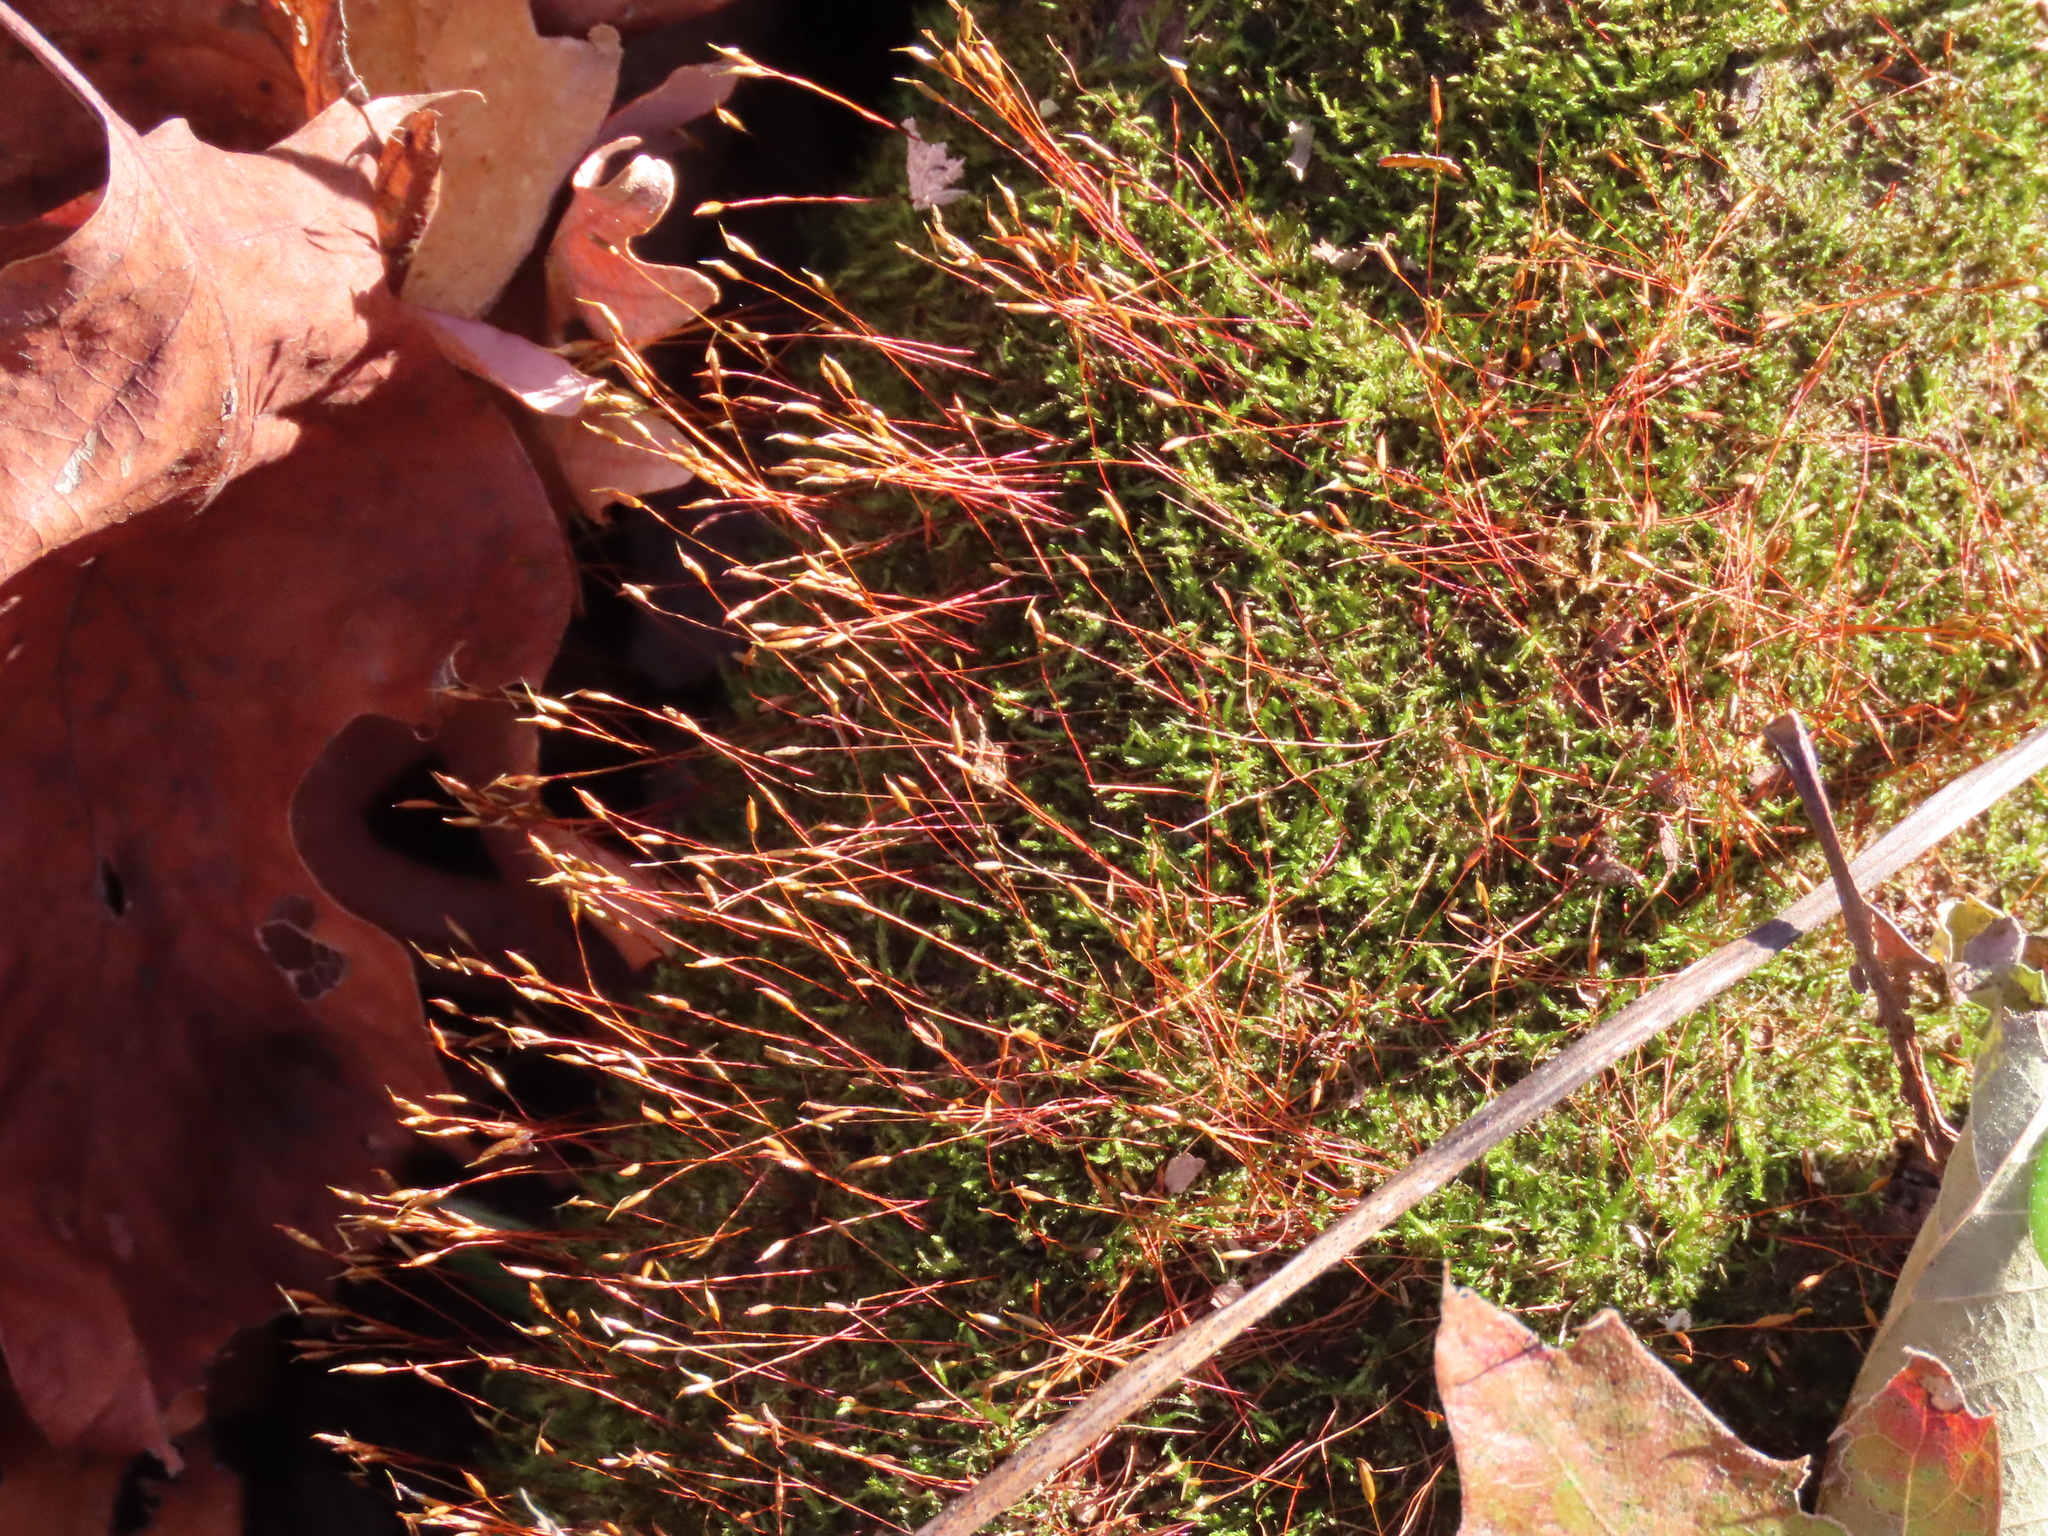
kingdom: Plantae
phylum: Bryophyta
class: Bryopsida
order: Hypnales
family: Pylaisiadelphaceae
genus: Platygyrium
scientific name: Platygyrium repens
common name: Flat-brocade moss
